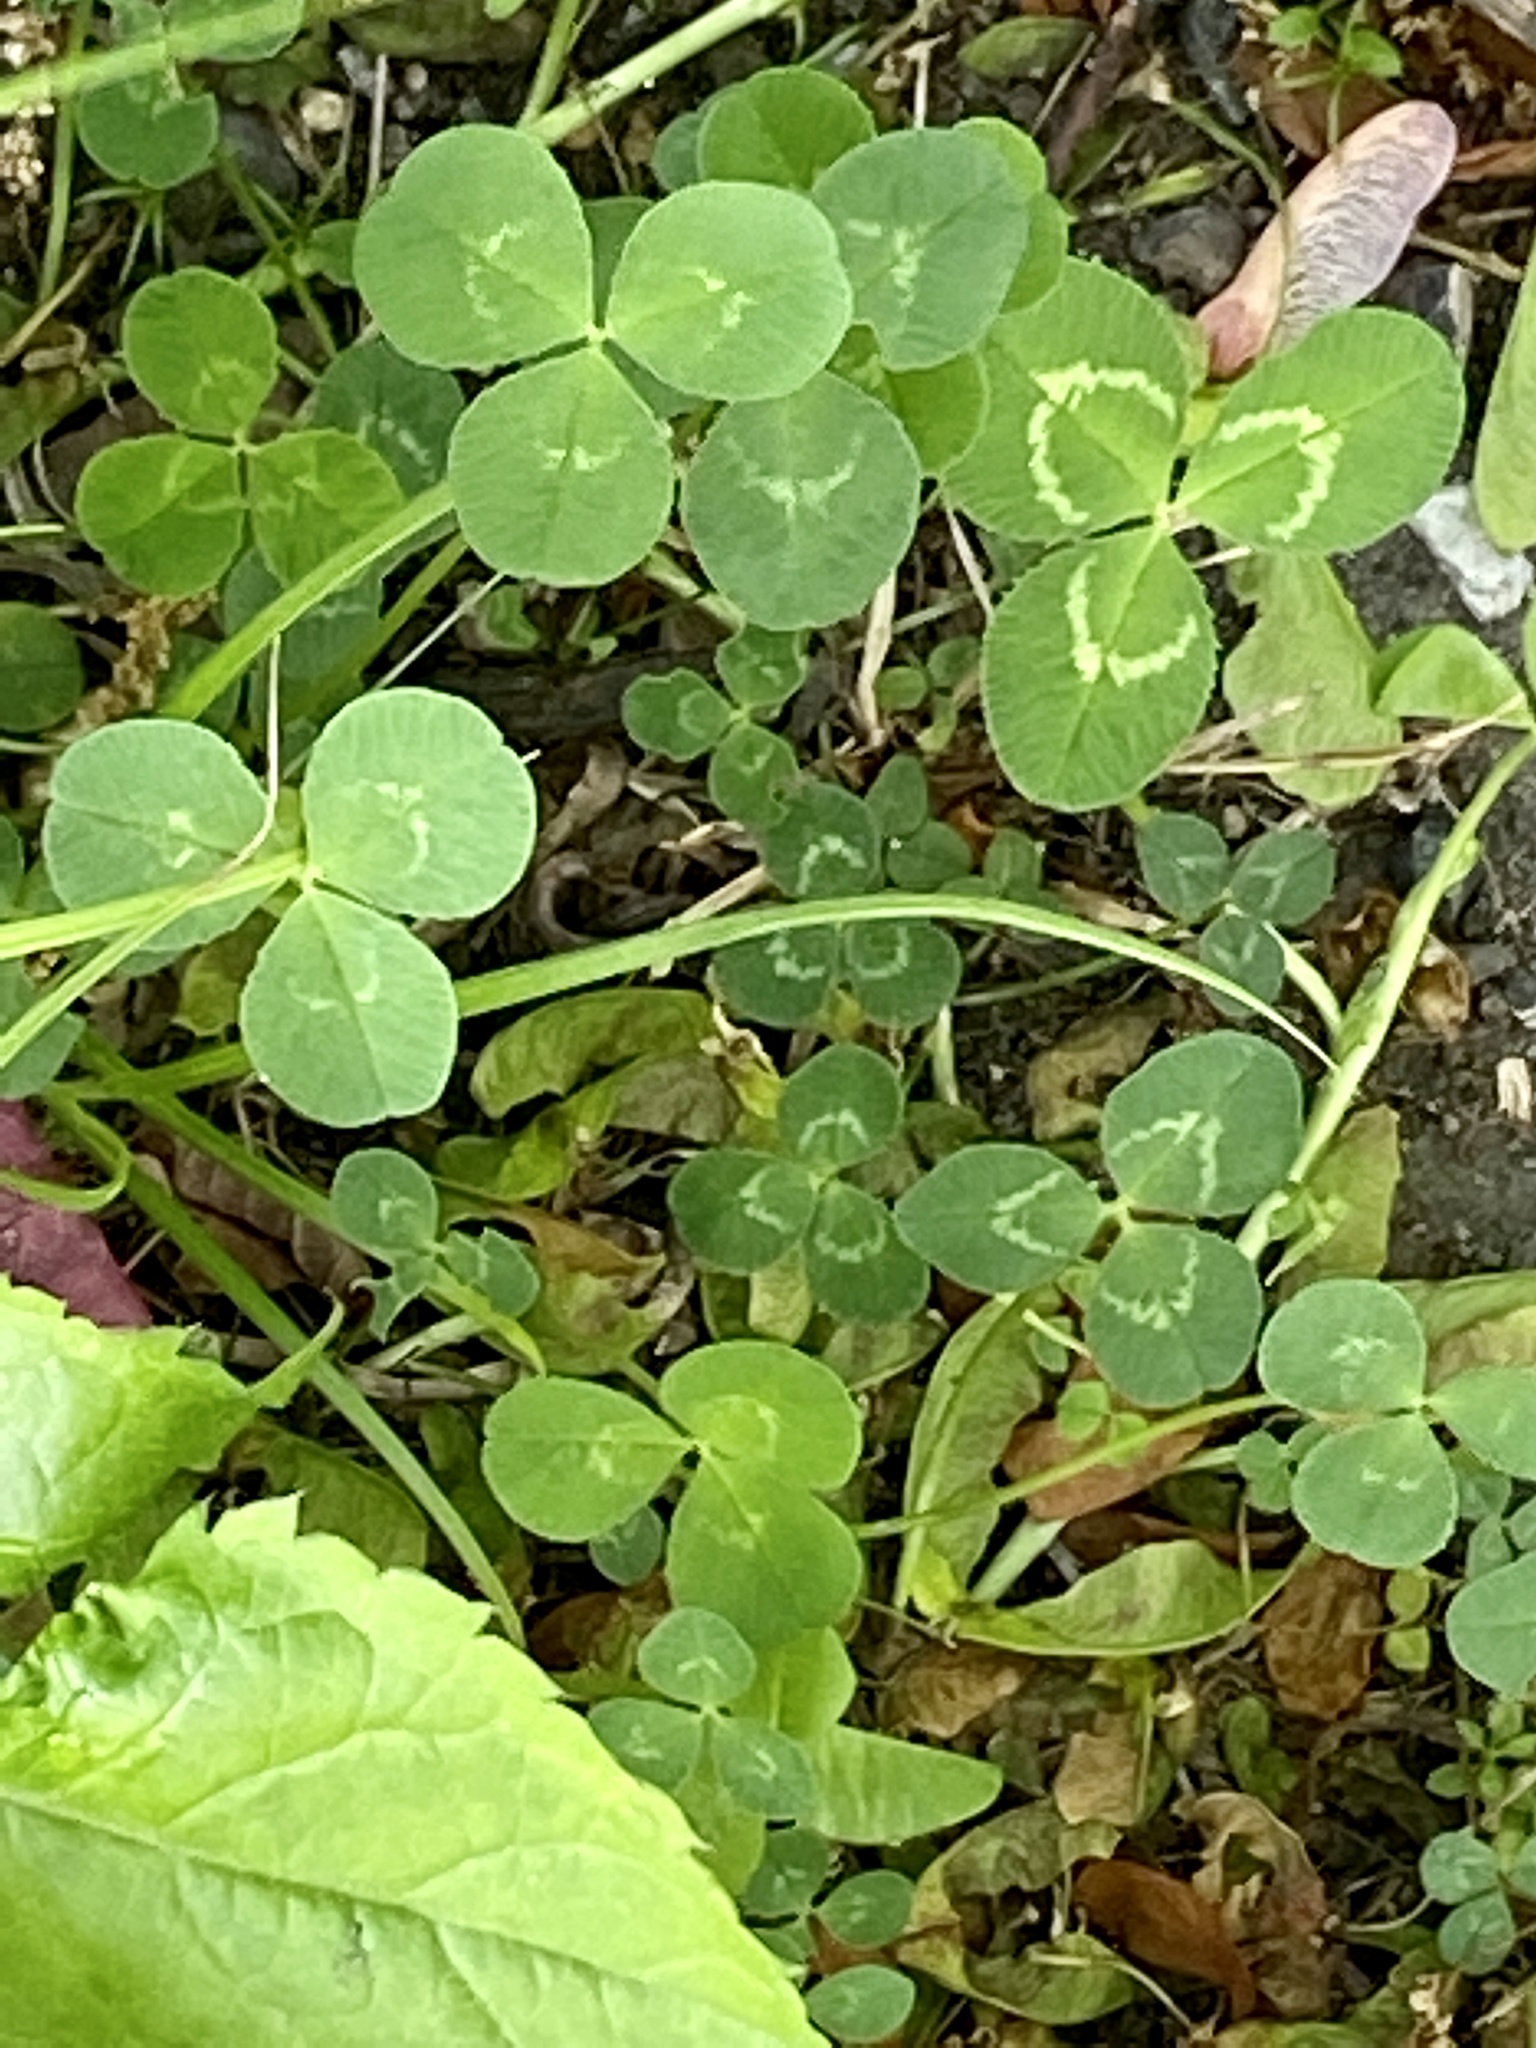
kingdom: Plantae
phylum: Tracheophyta
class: Magnoliopsida
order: Fabales
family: Fabaceae
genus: Trifolium
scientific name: Trifolium repens
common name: White clover
